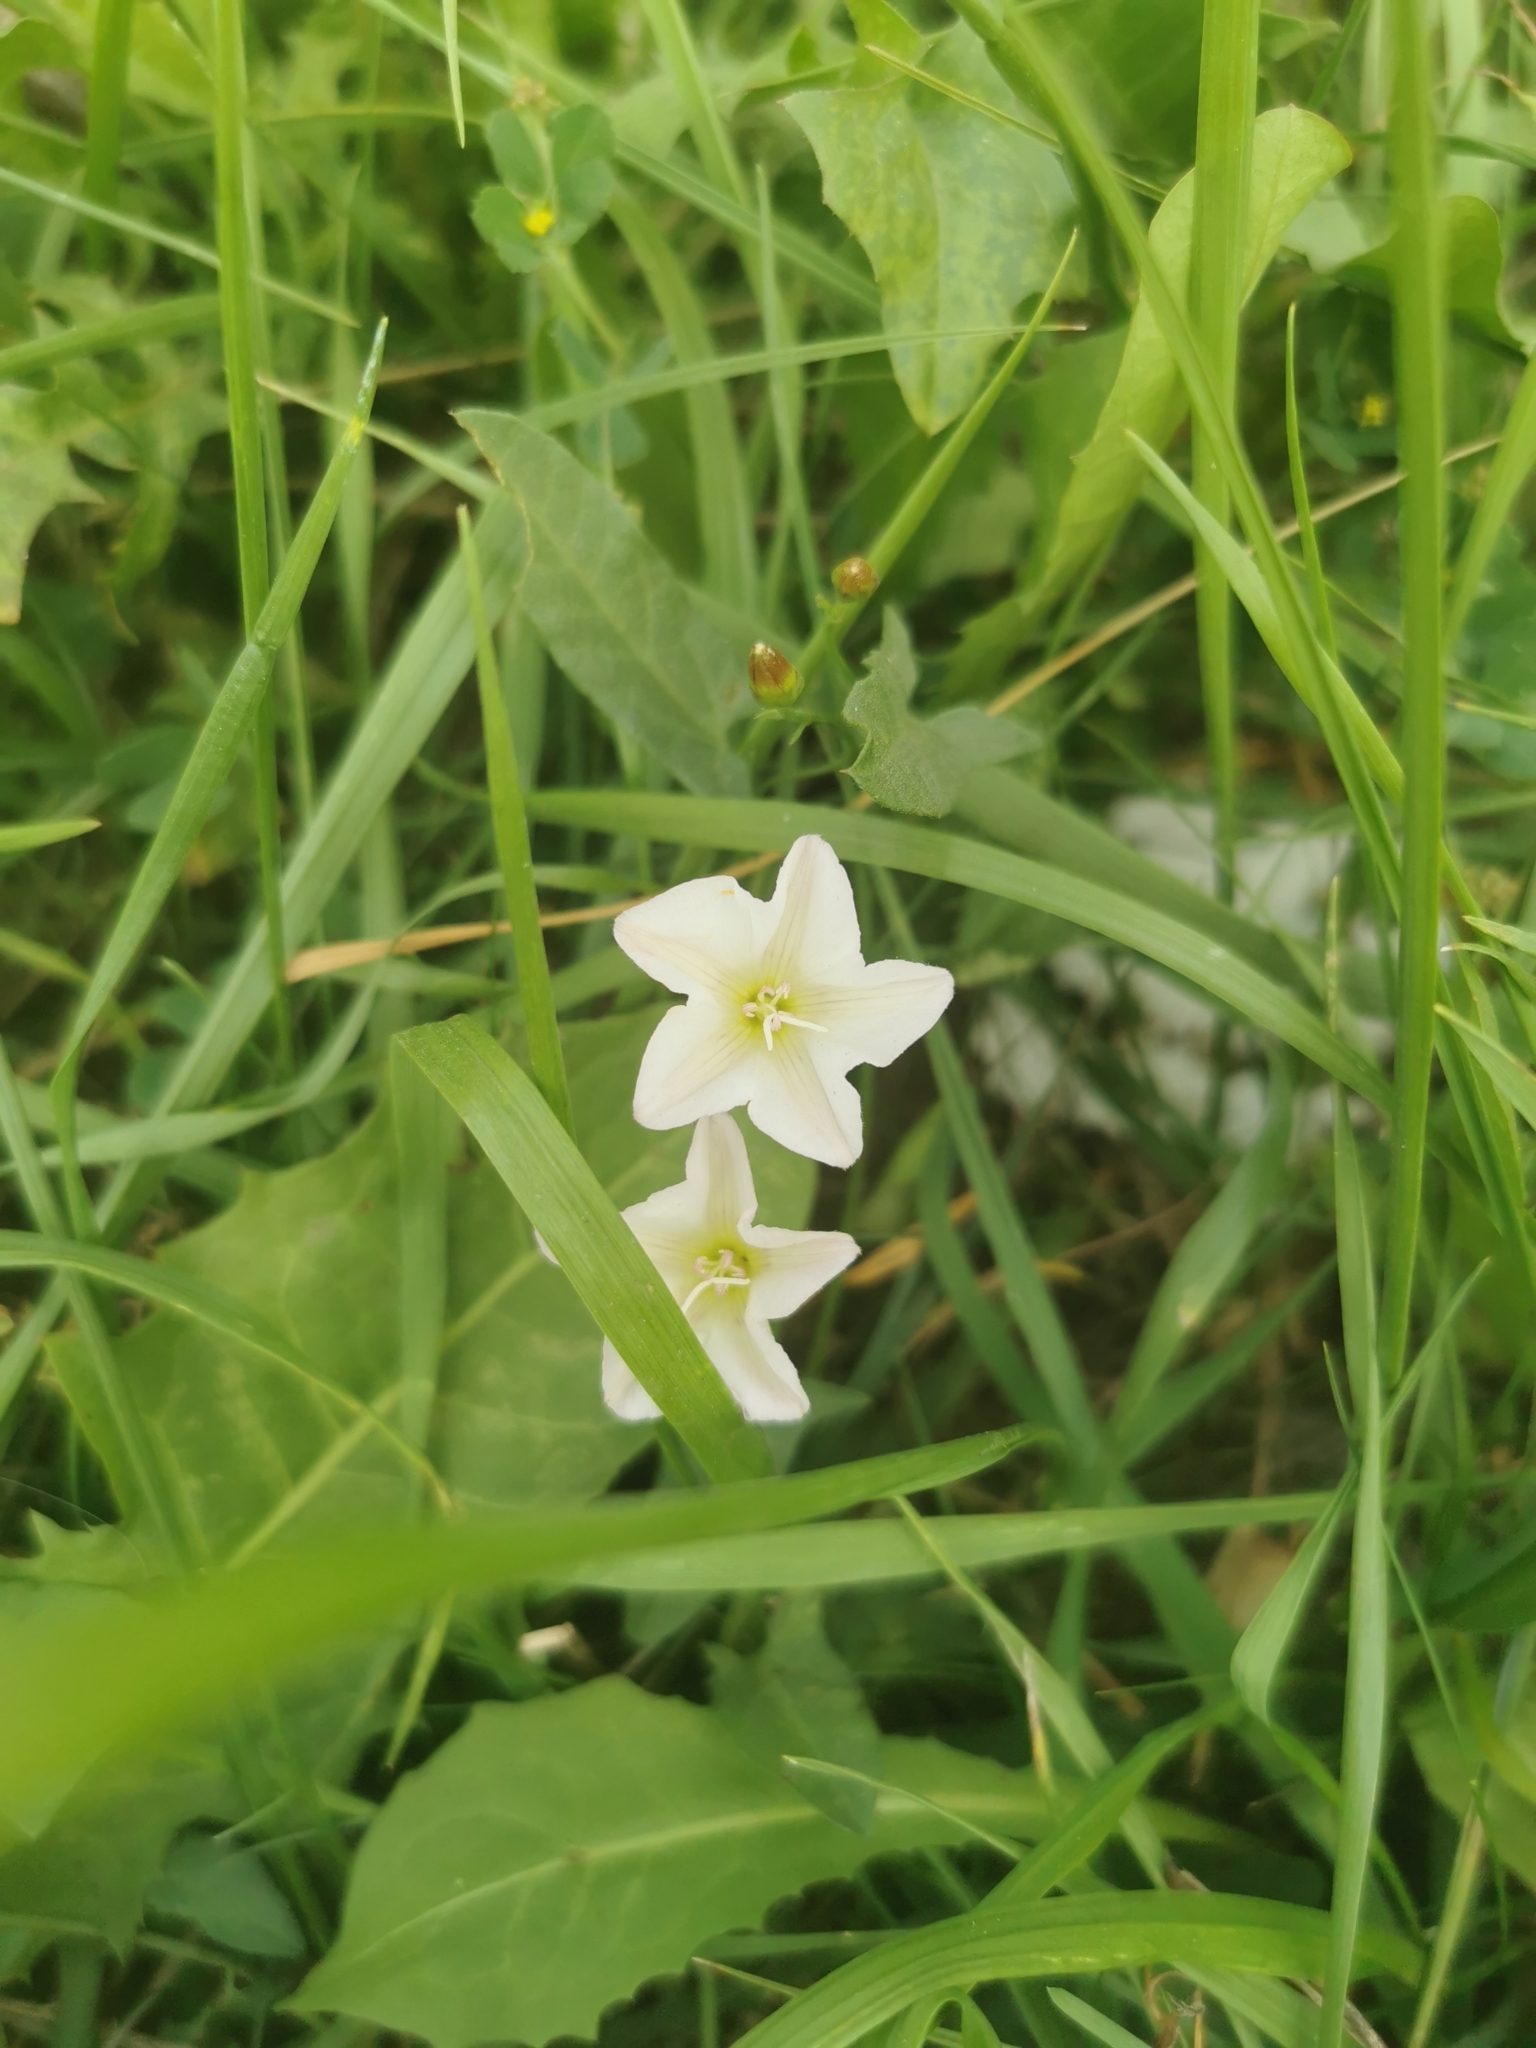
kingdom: Plantae
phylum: Tracheophyta
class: Magnoliopsida
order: Solanales
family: Convolvulaceae
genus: Convolvulus
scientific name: Convolvulus arvensis
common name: Field bindweed
